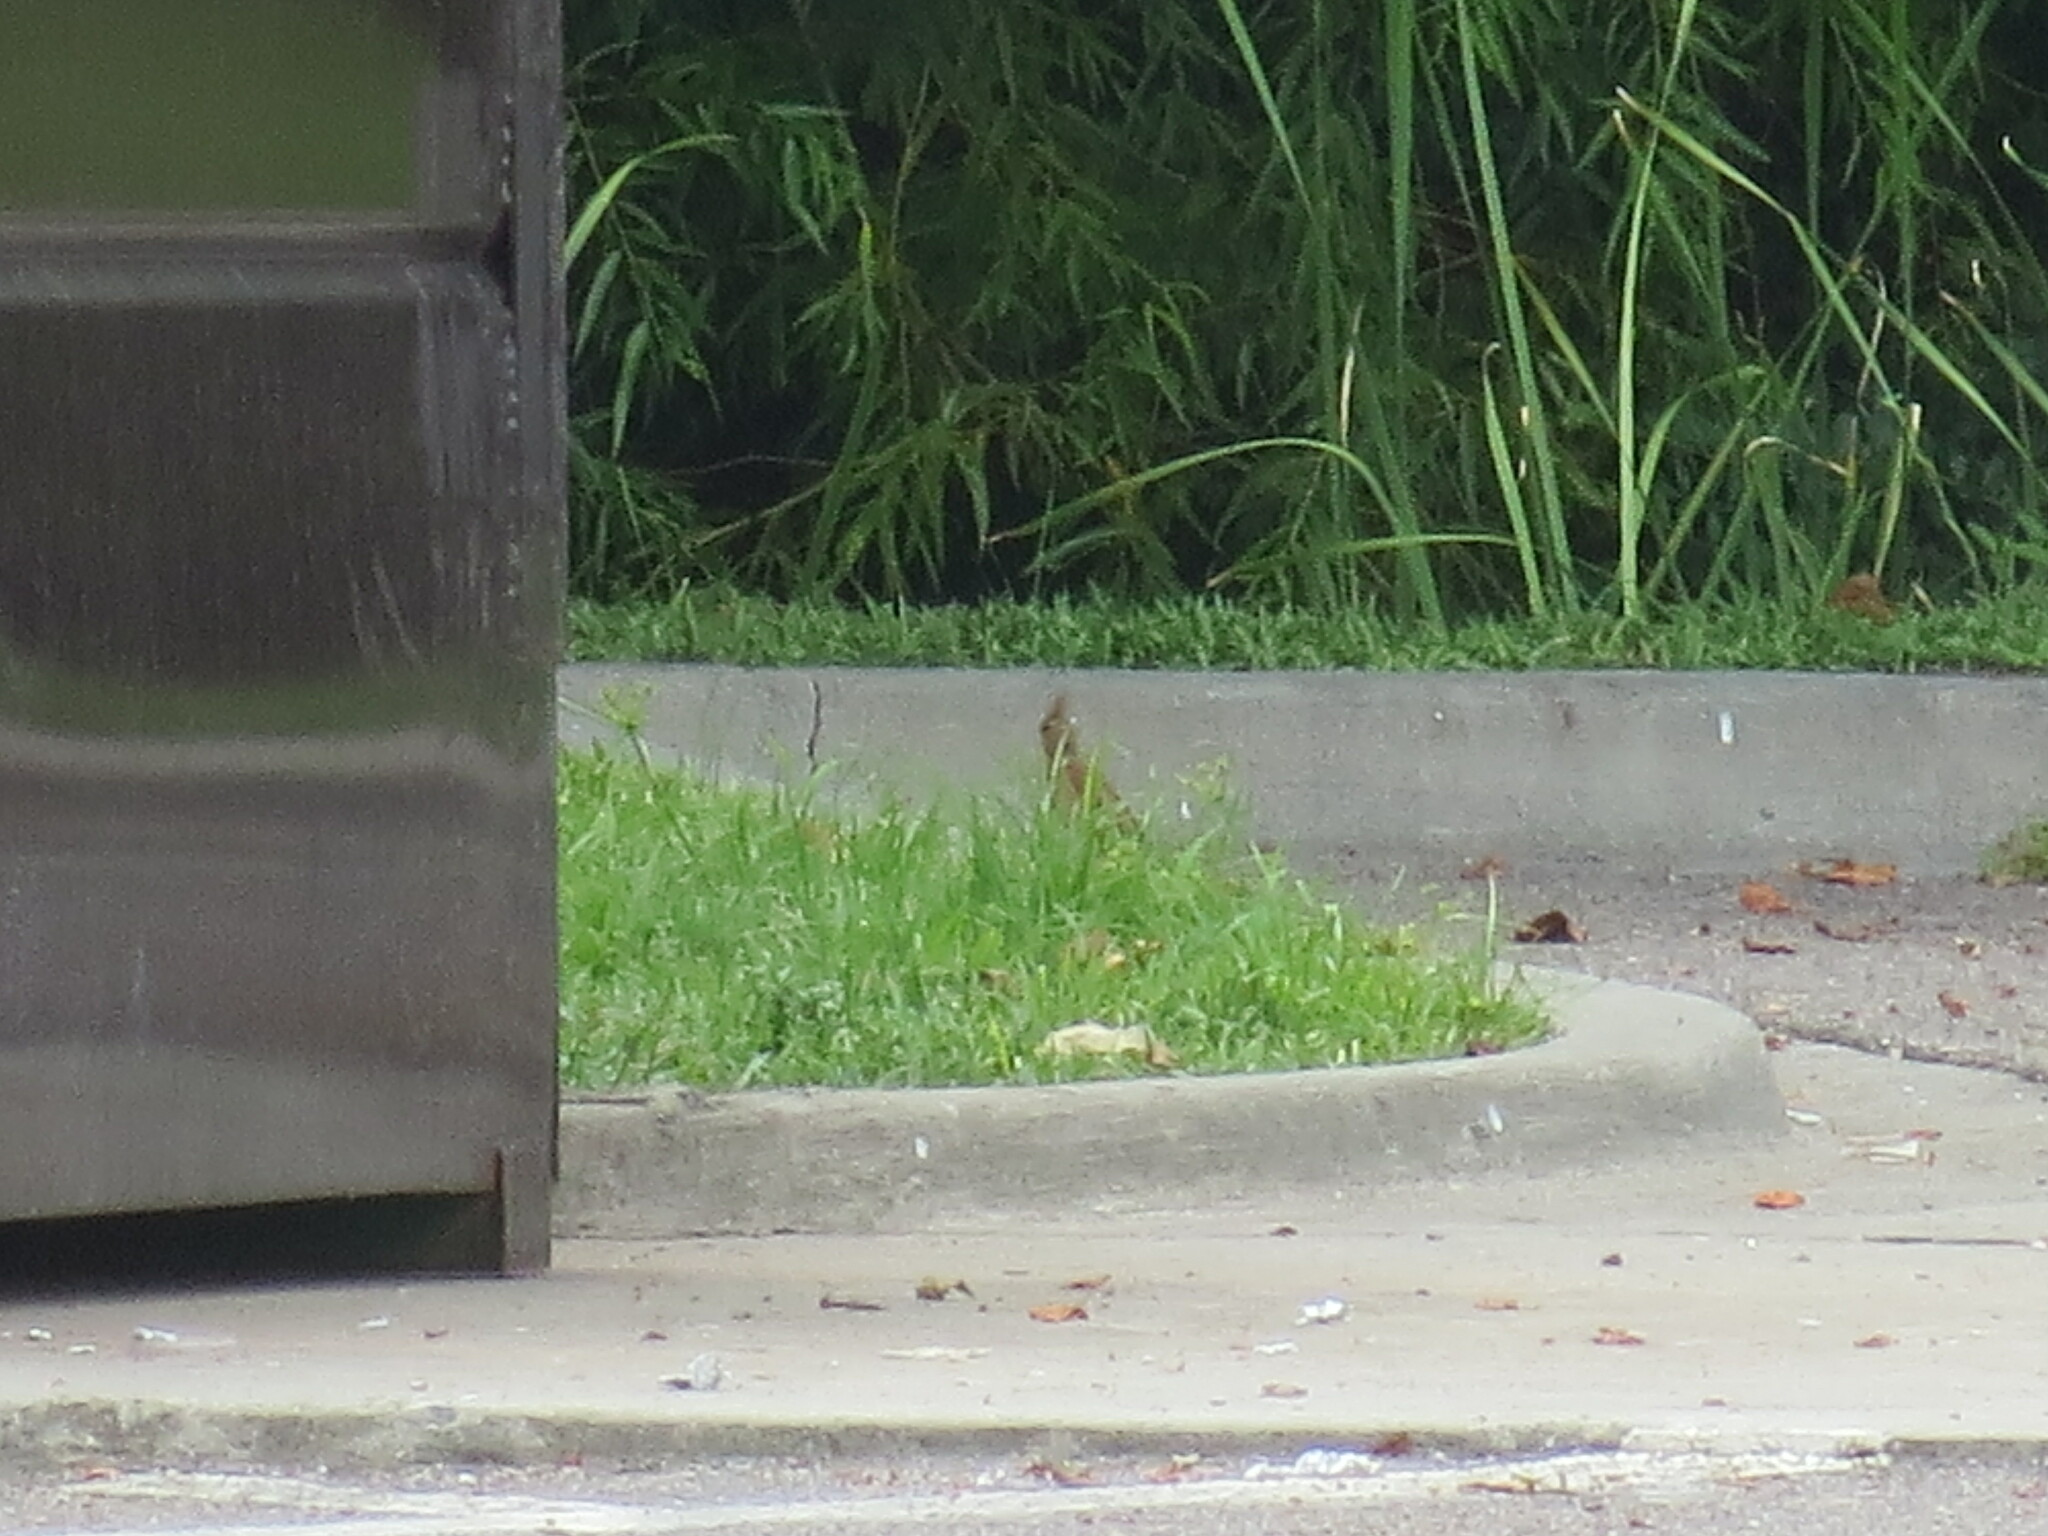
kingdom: Animalia
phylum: Chordata
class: Aves
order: Passeriformes
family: Cardinalidae
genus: Cardinalis
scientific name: Cardinalis cardinalis
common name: Northern cardinal
